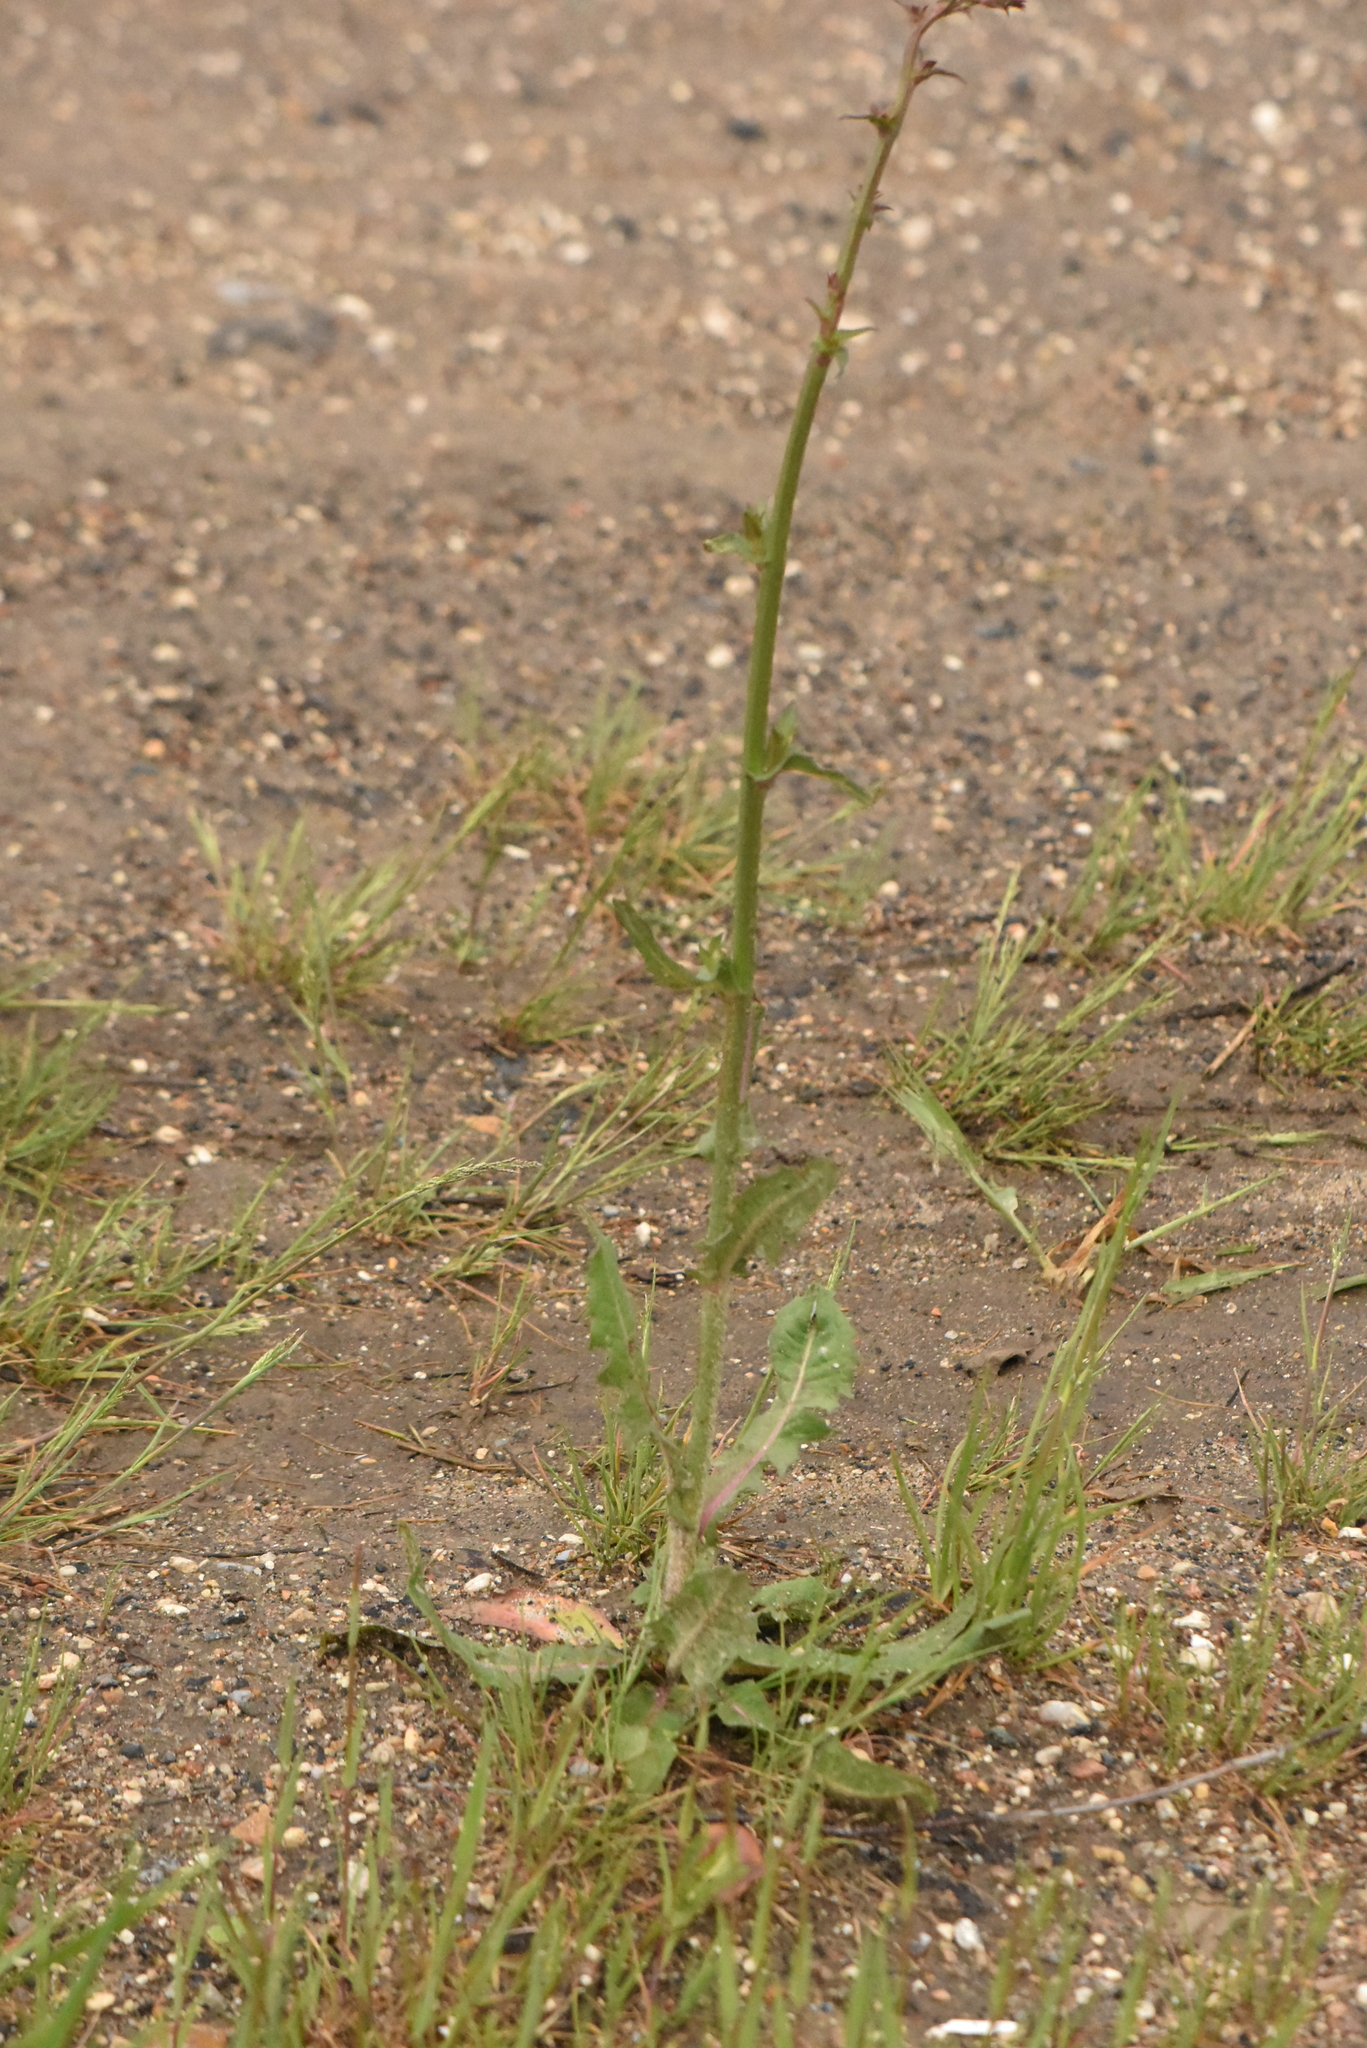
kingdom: Plantae
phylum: Tracheophyta
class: Magnoliopsida
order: Asterales
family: Asteraceae
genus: Cichorium
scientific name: Cichorium intybus
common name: Chicory
